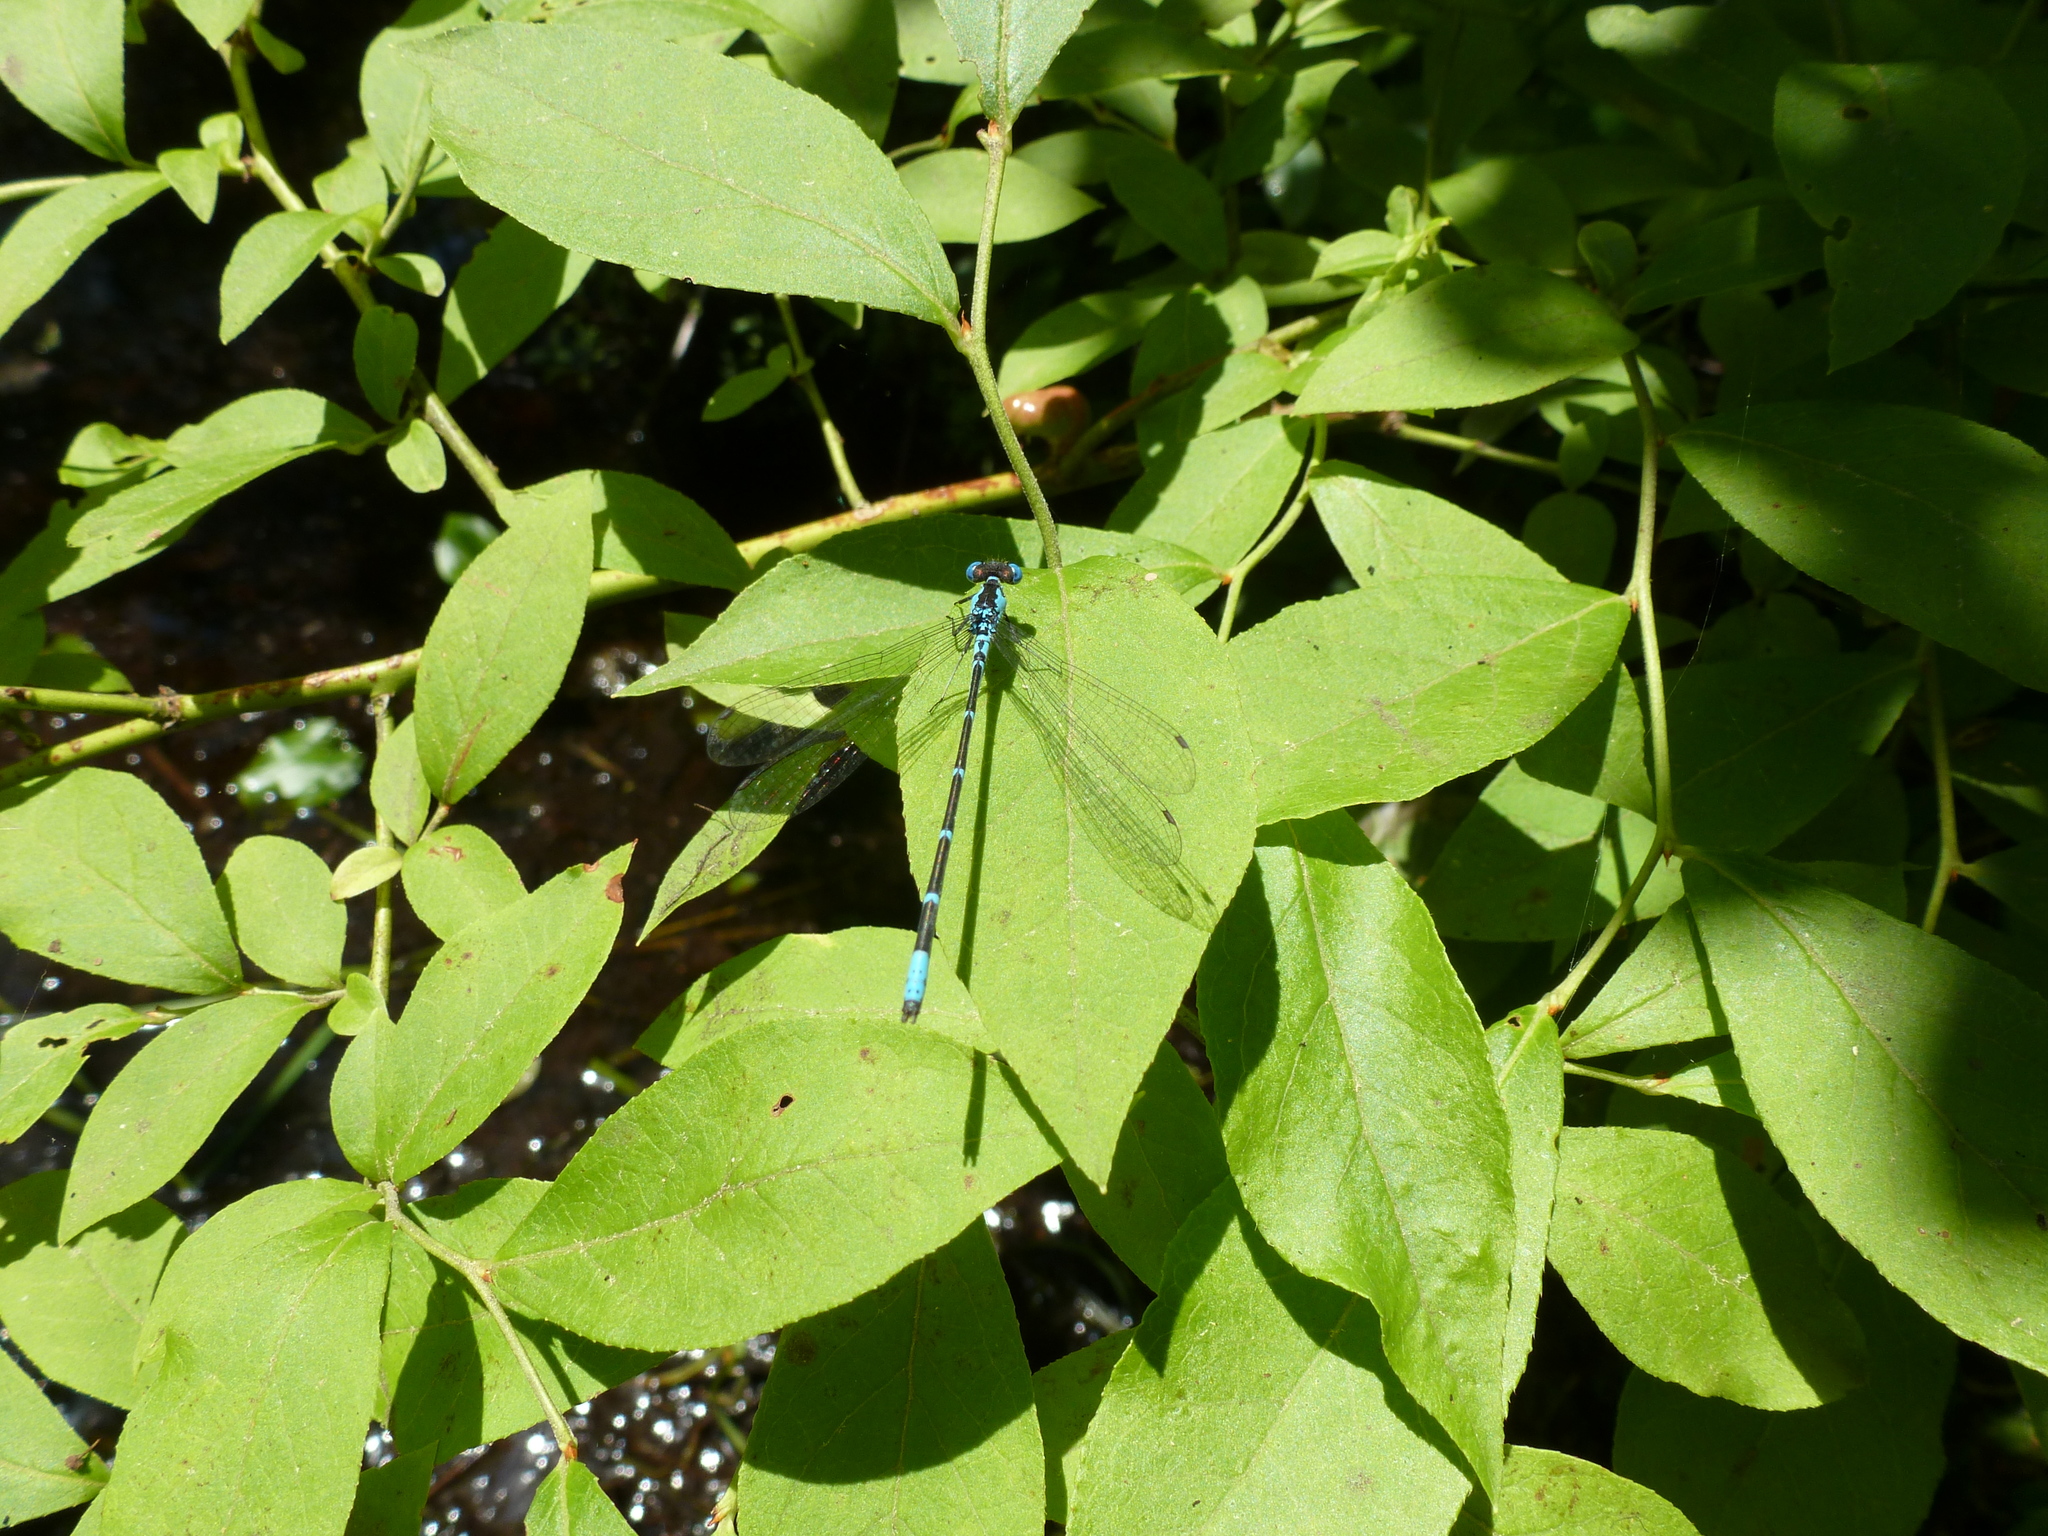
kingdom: Animalia
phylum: Arthropoda
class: Insecta
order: Odonata
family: Coenagrionidae
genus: Chromagrion
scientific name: Chromagrion conditum
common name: Aurora damsel
